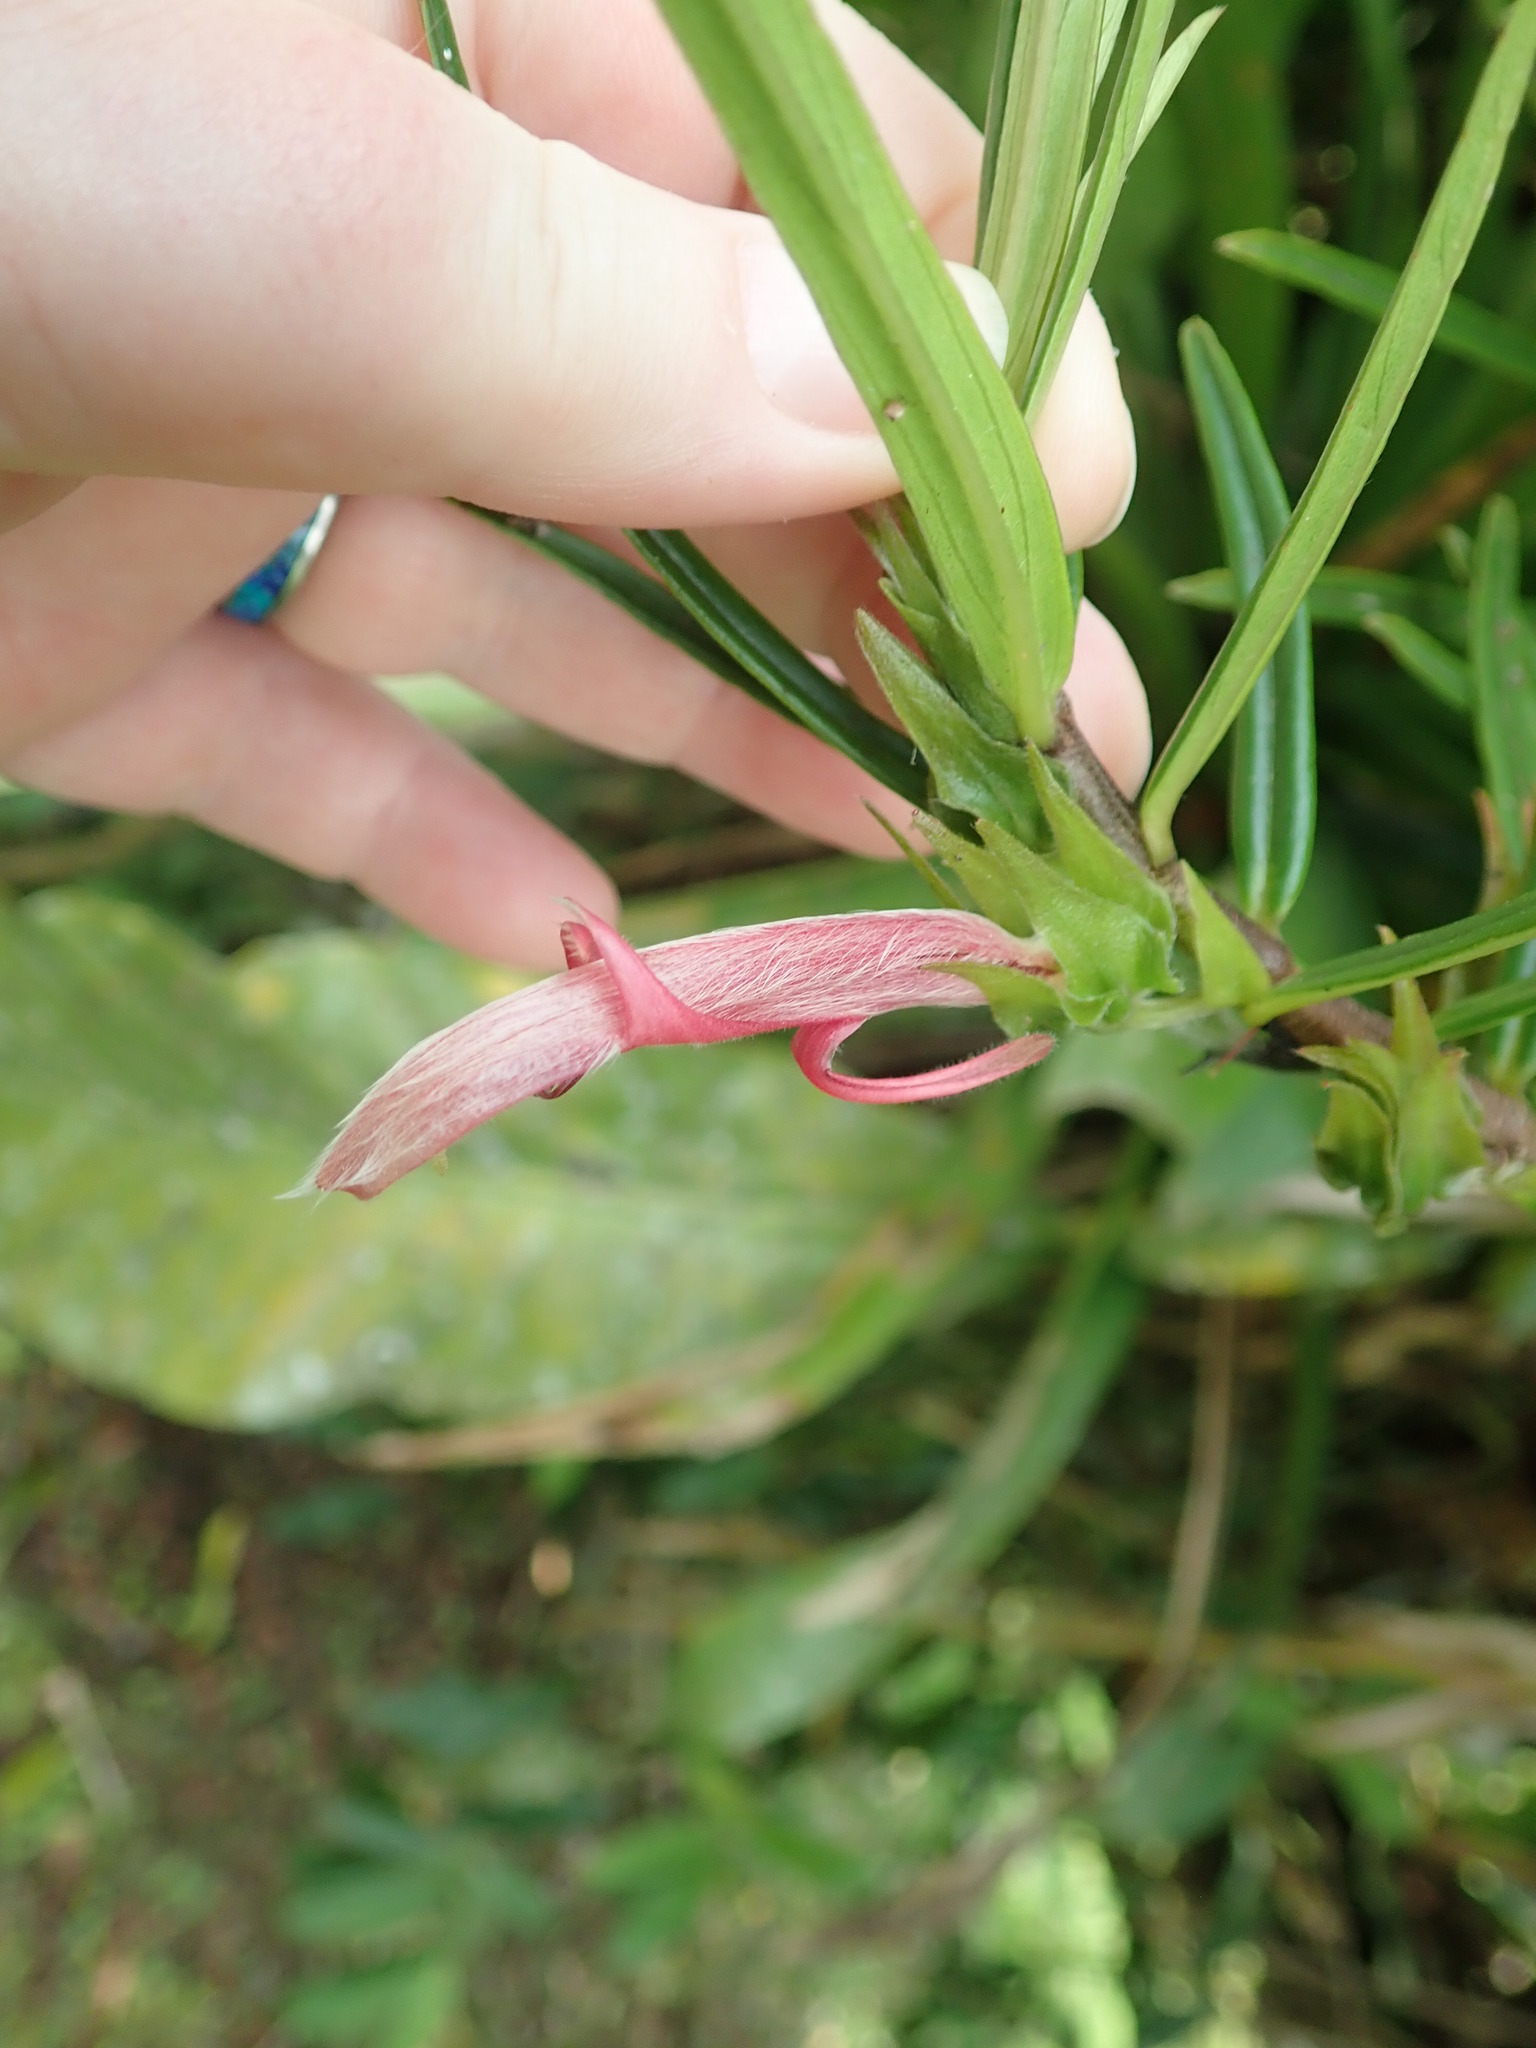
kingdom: Plantae
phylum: Tracheophyta
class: Magnoliopsida
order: Lamiales
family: Gesneriaceae
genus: Columnea
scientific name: Columnea linearis
